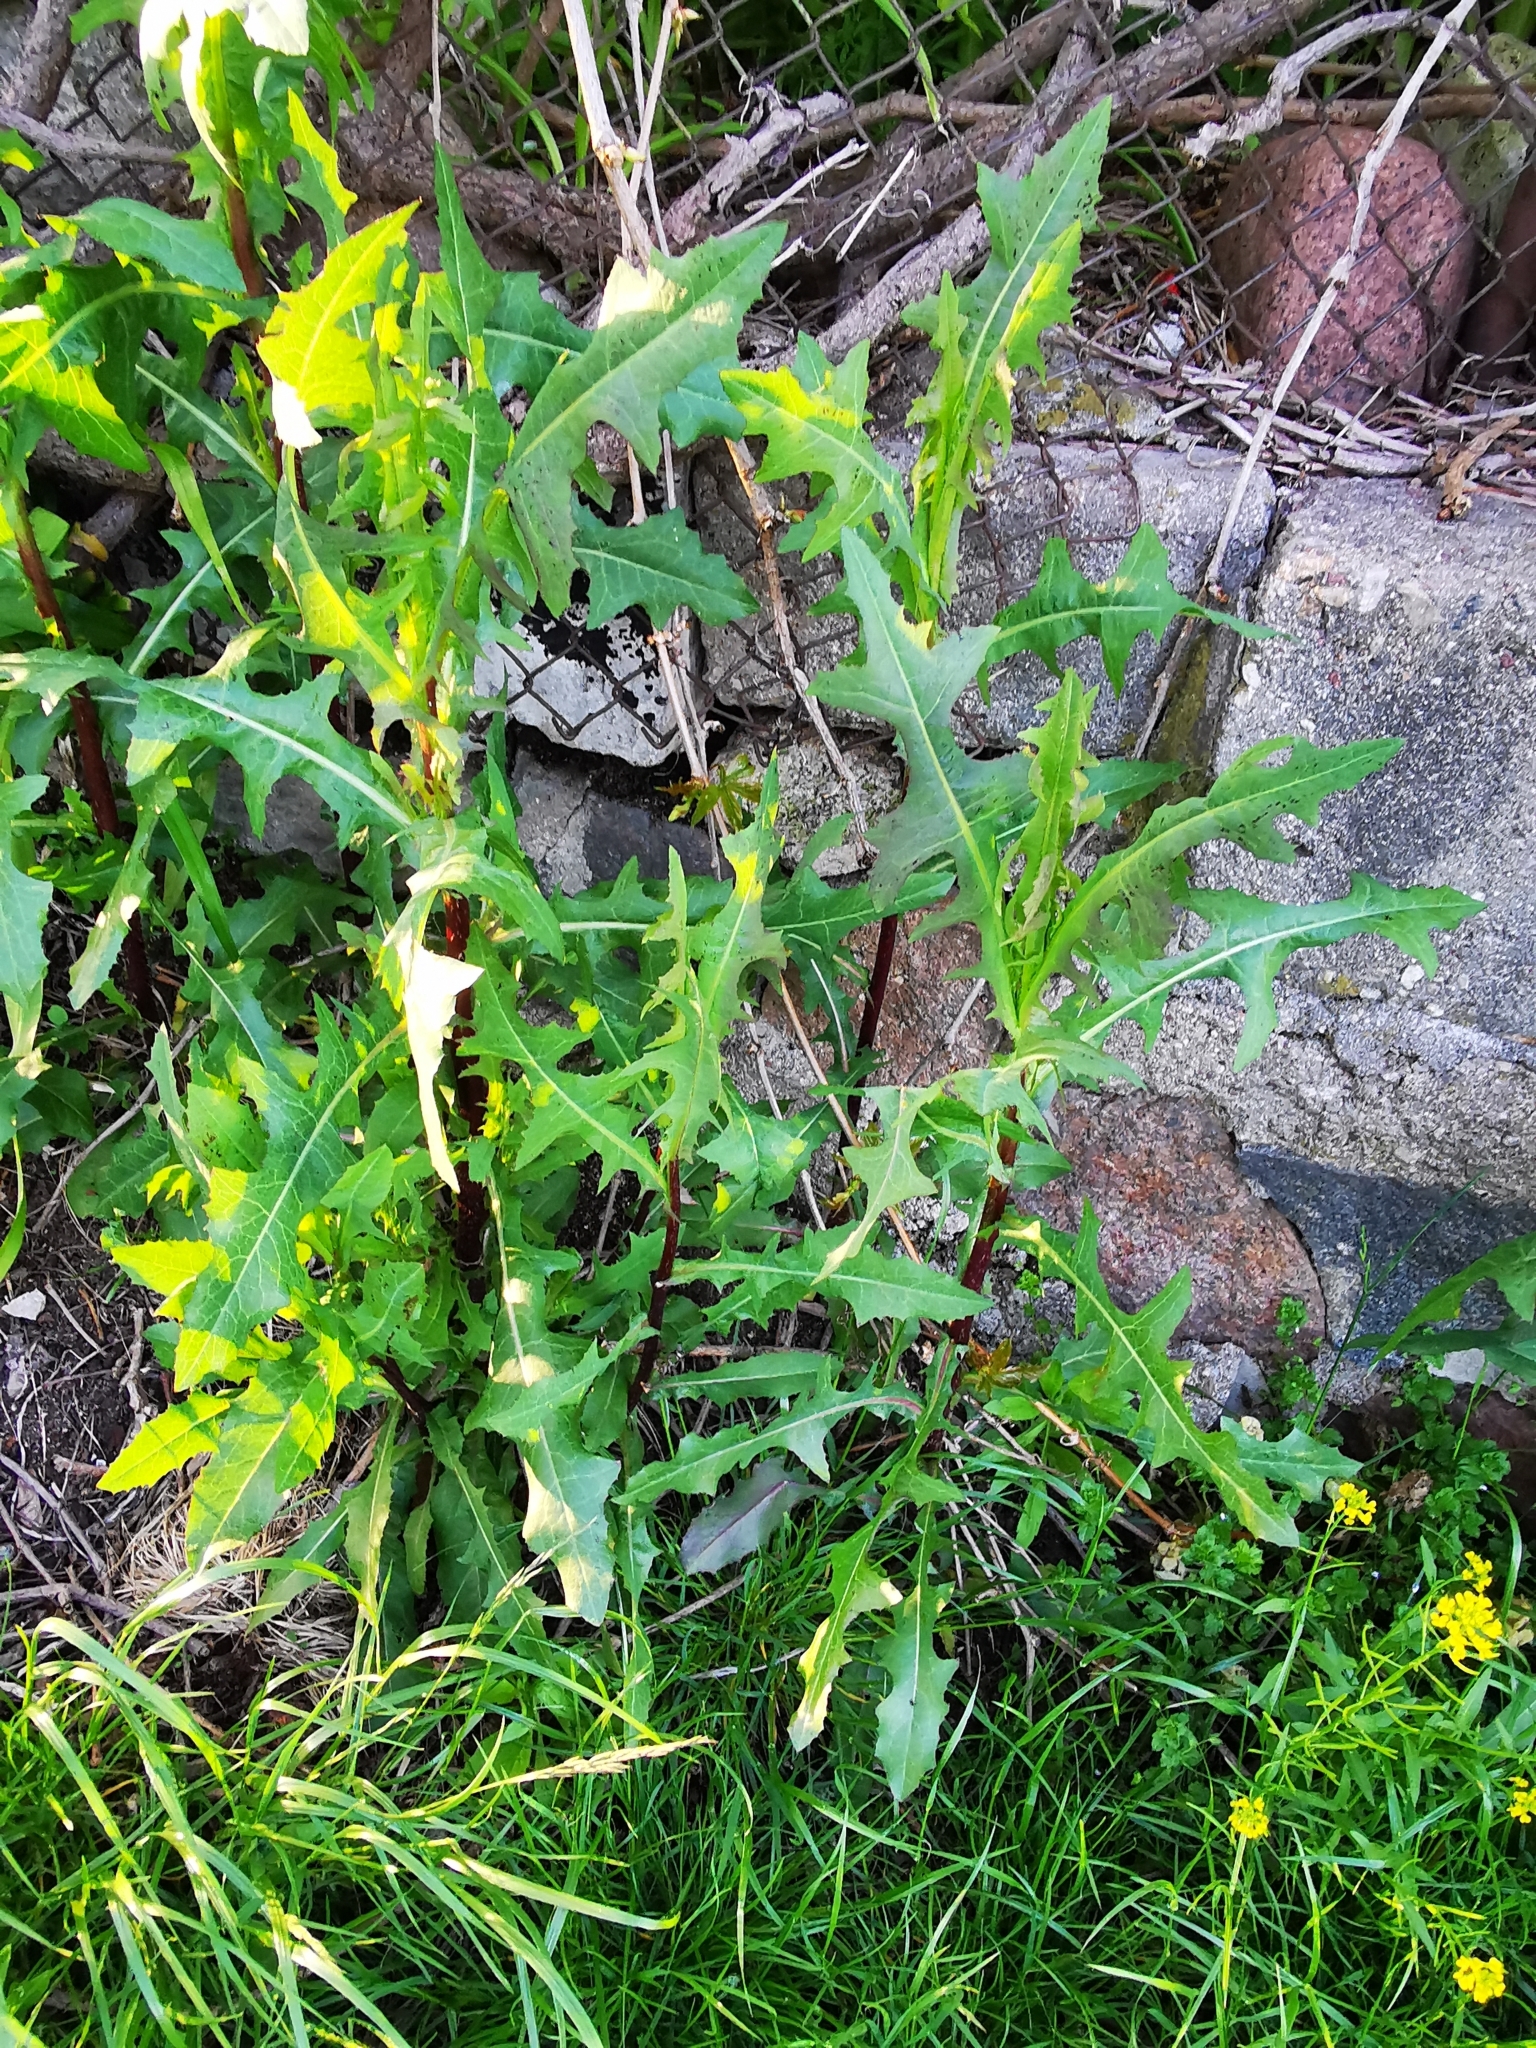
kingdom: Plantae
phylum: Tracheophyta
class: Magnoliopsida
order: Asterales
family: Asteraceae
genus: Lactuca
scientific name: Lactuca serriola
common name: Prickly lettuce
